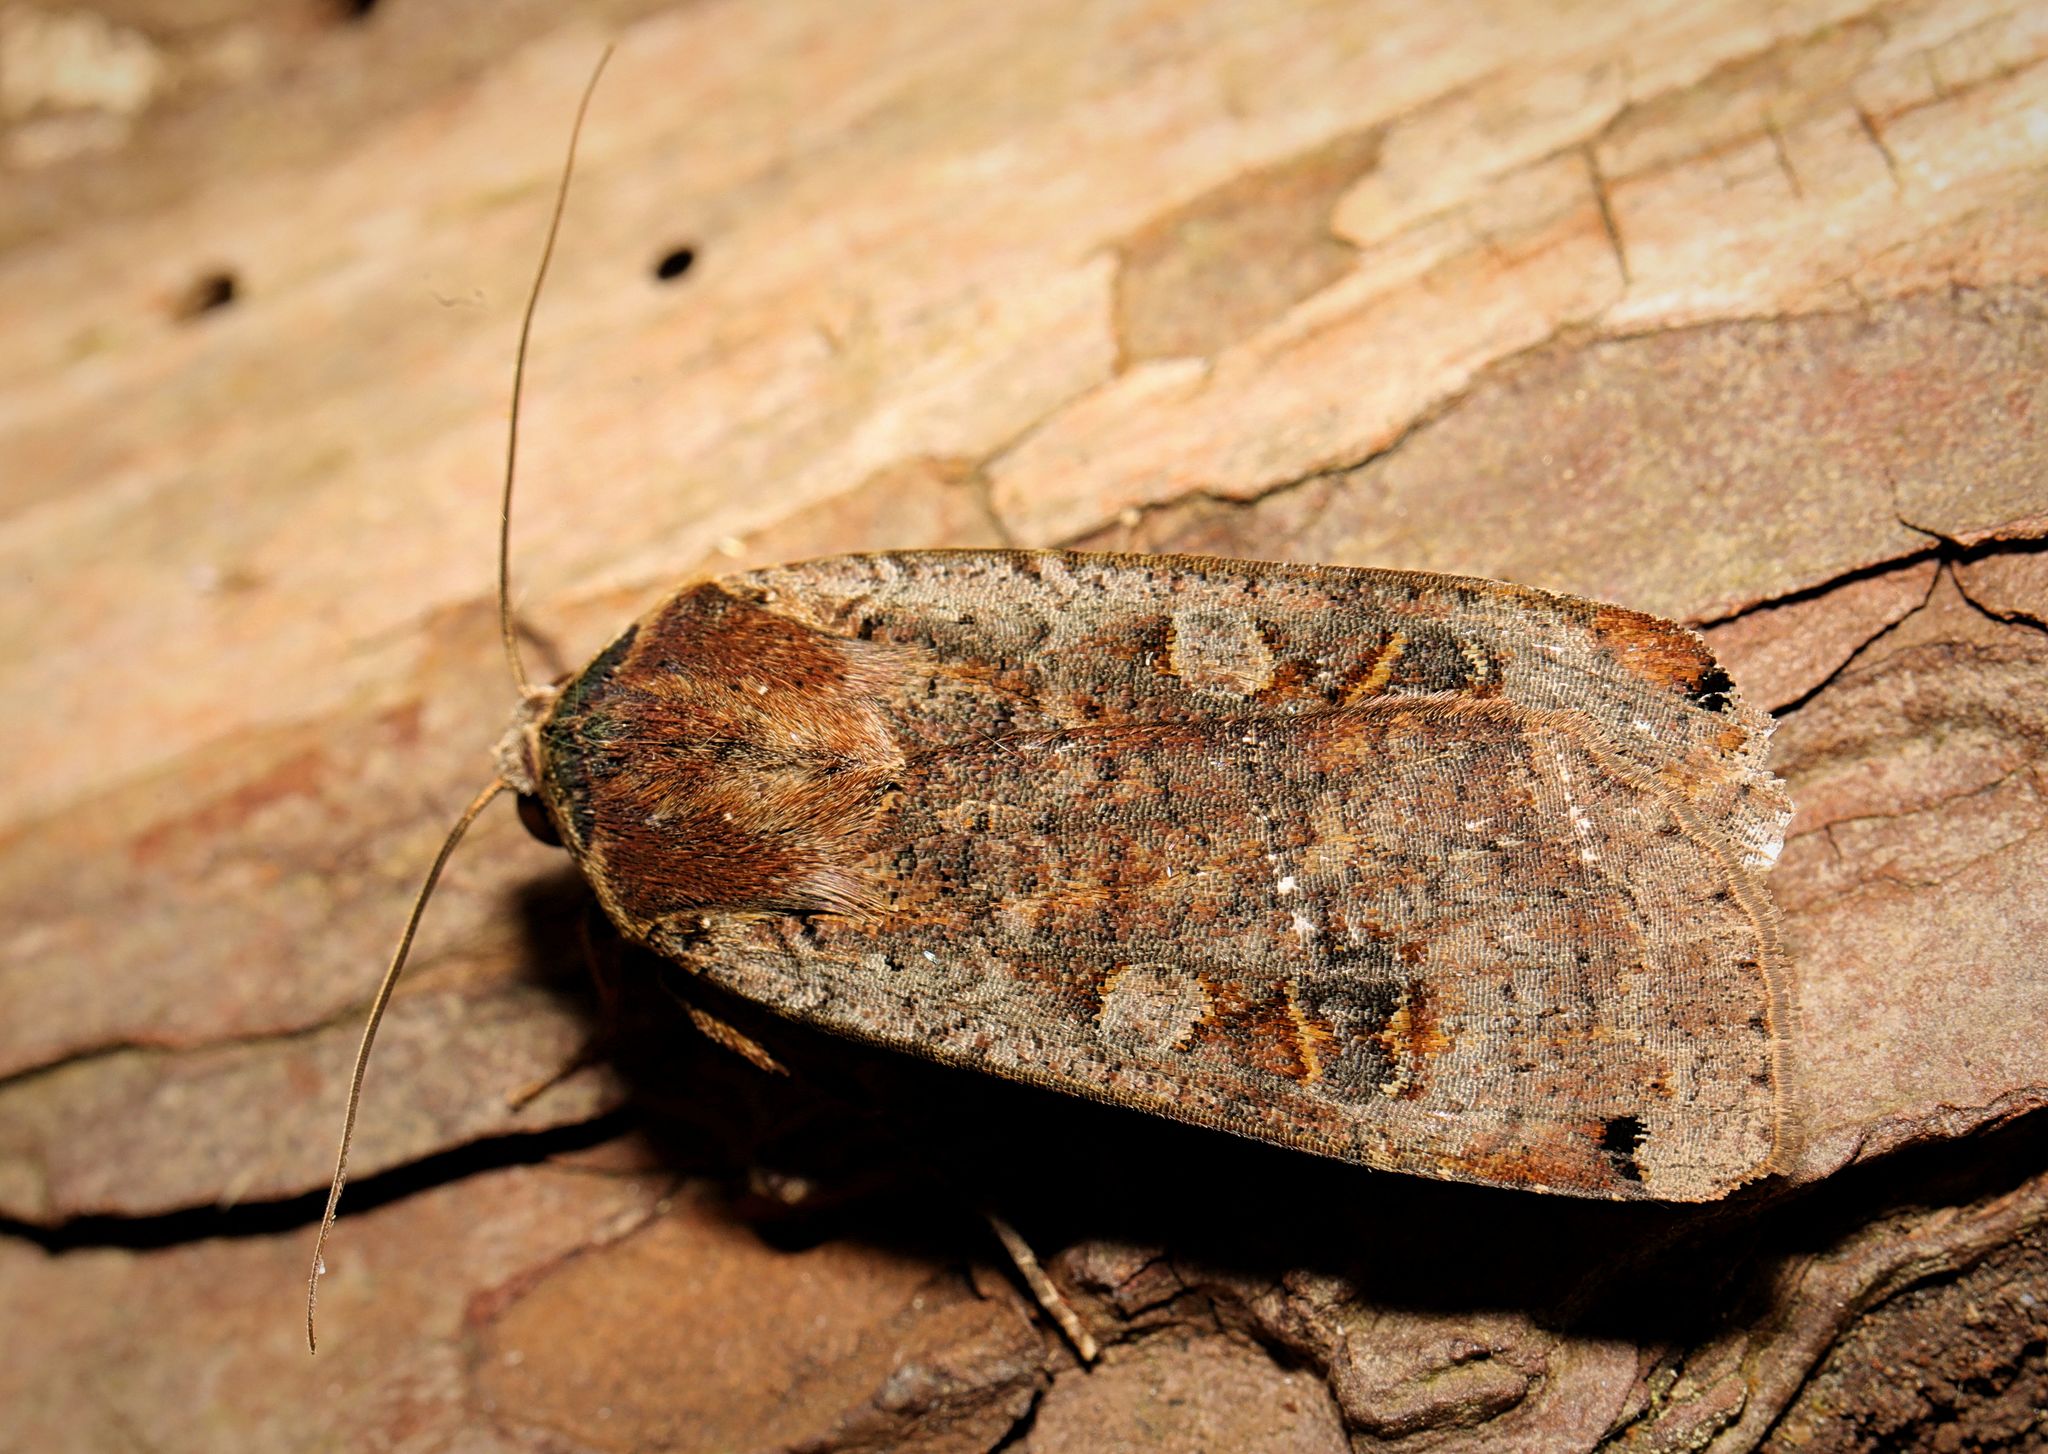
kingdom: Animalia
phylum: Arthropoda
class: Insecta
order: Lepidoptera
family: Noctuidae
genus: Noctua
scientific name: Noctua pronuba
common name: Large yellow underwing
